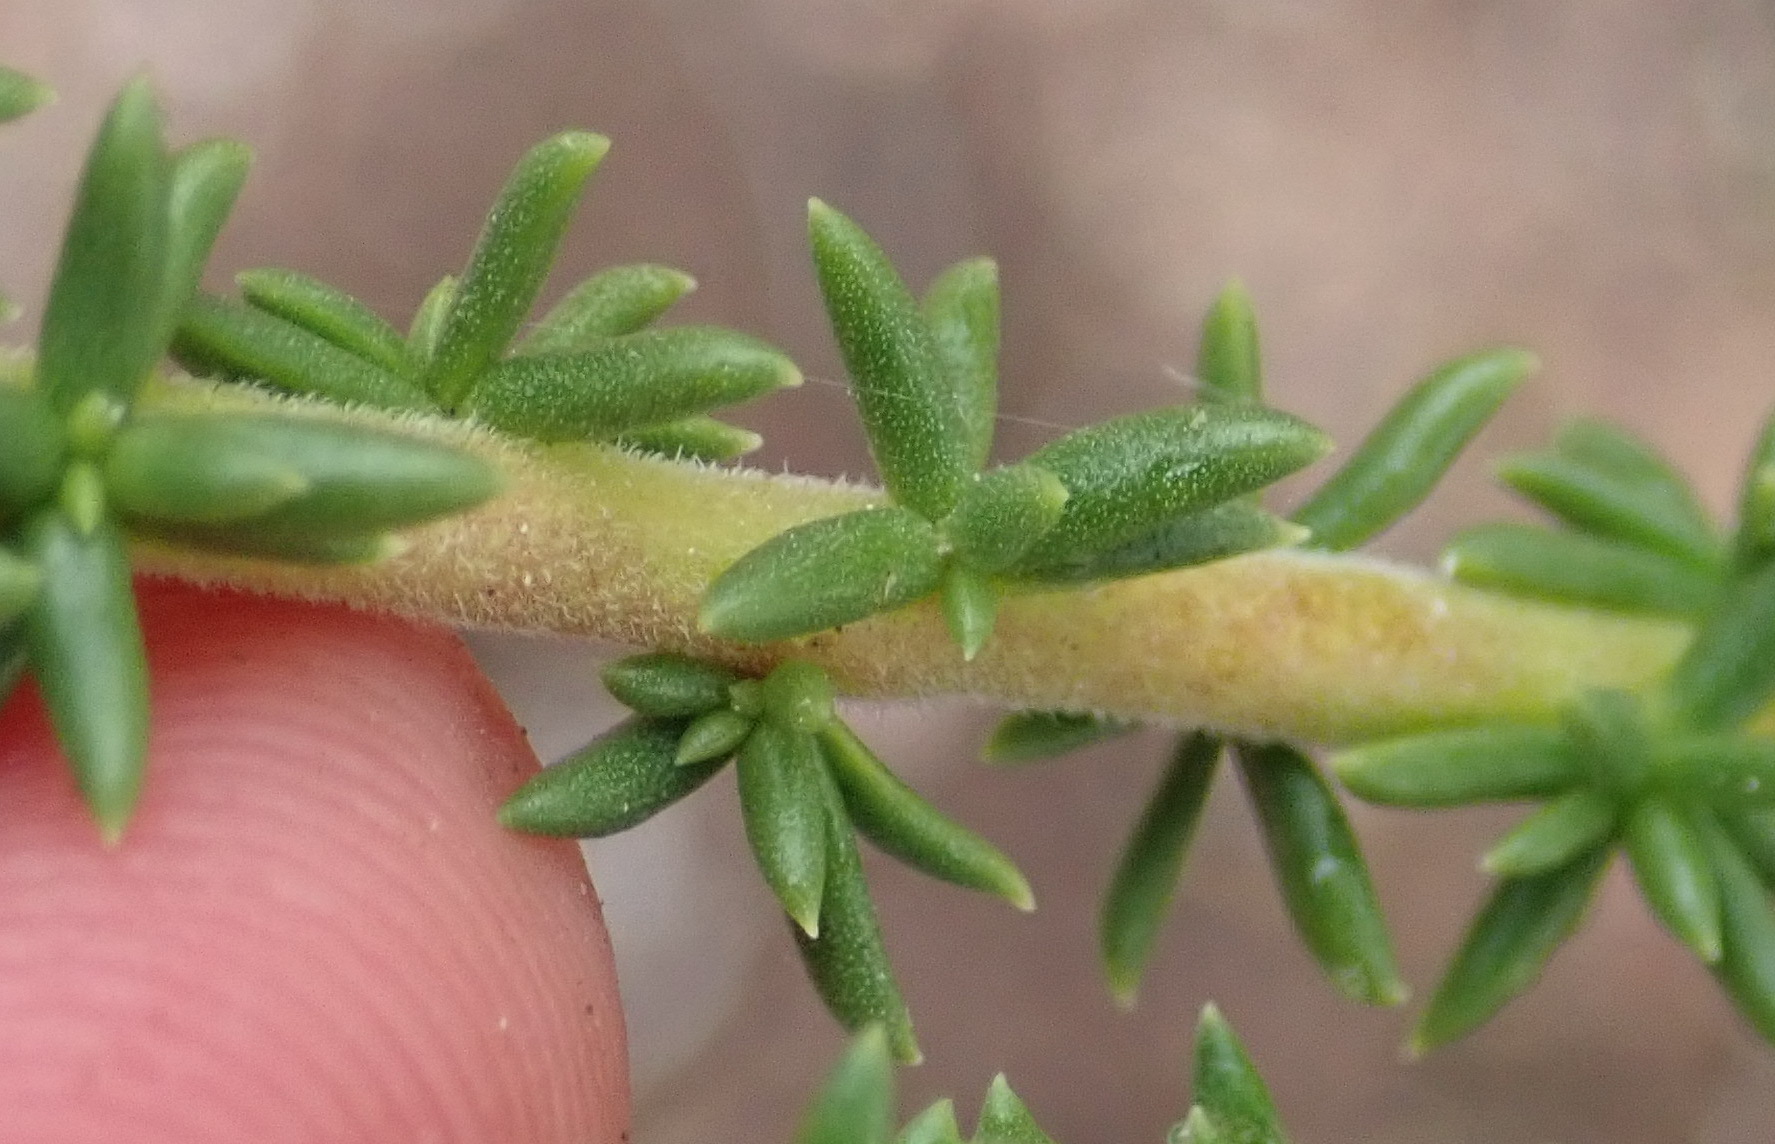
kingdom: Plantae
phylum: Tracheophyta
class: Magnoliopsida
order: Lamiales
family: Scrophulariaceae
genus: Selago
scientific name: Selago glomerata
